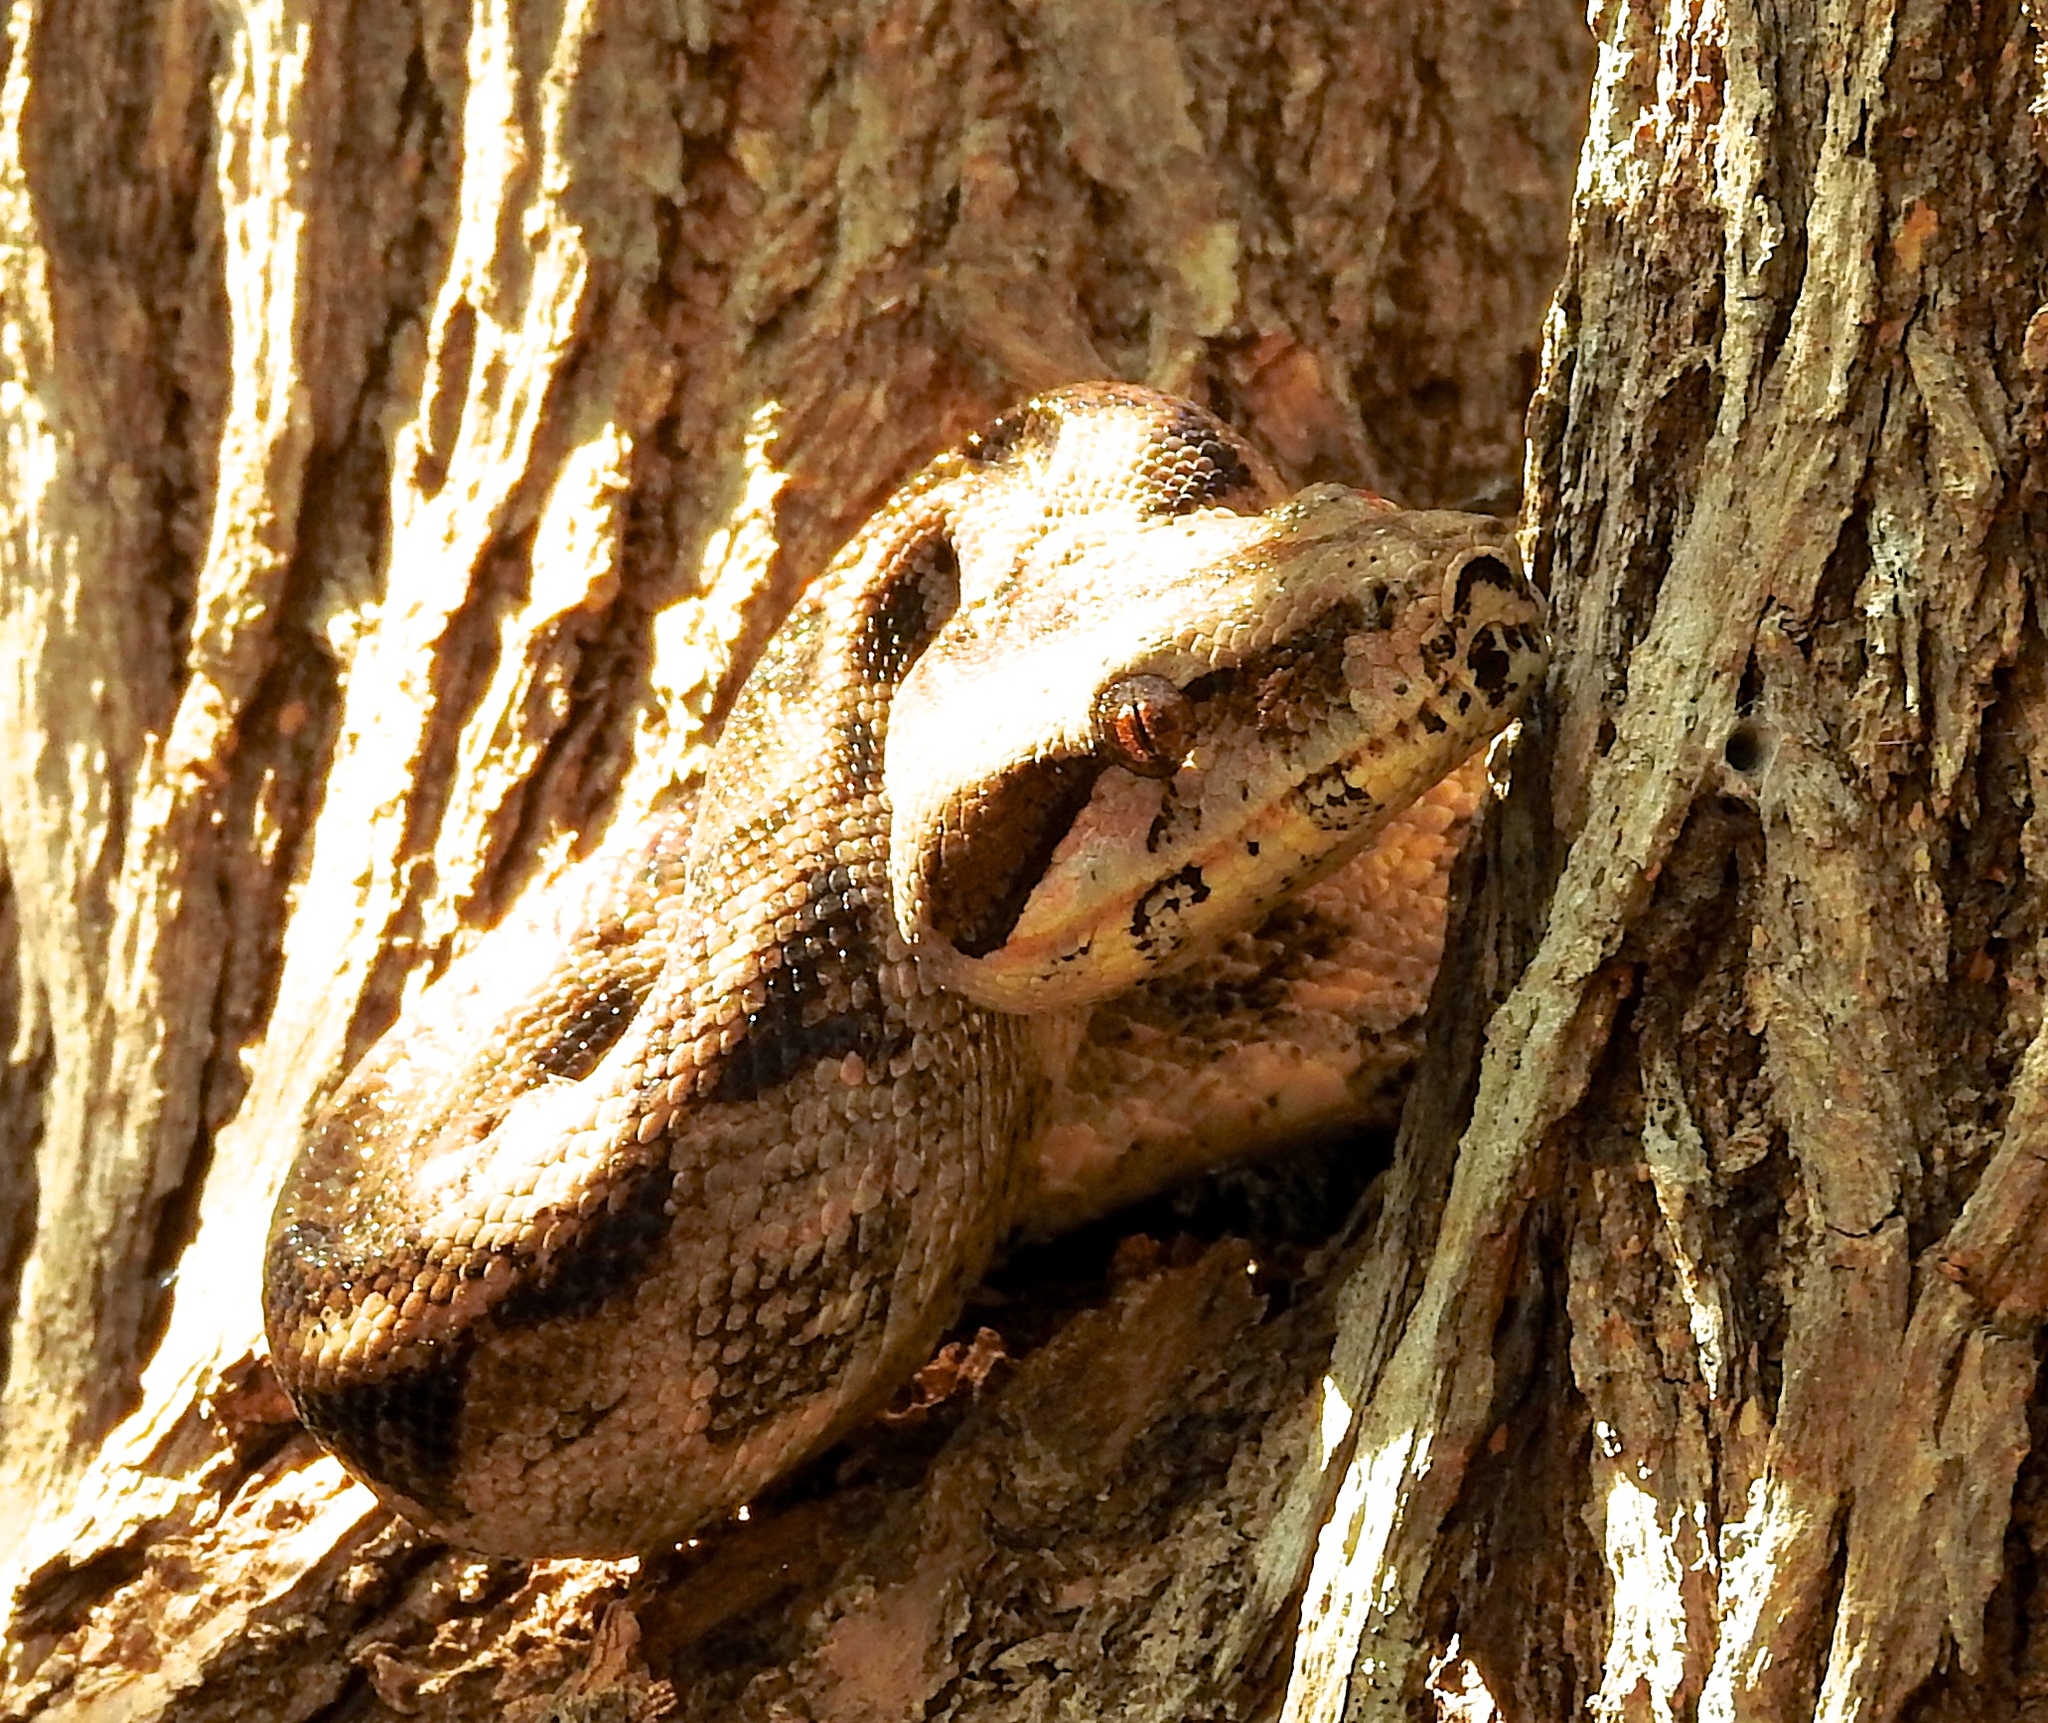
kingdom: Animalia
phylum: Chordata
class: Squamata
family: Boidae
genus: Boa
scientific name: Boa
